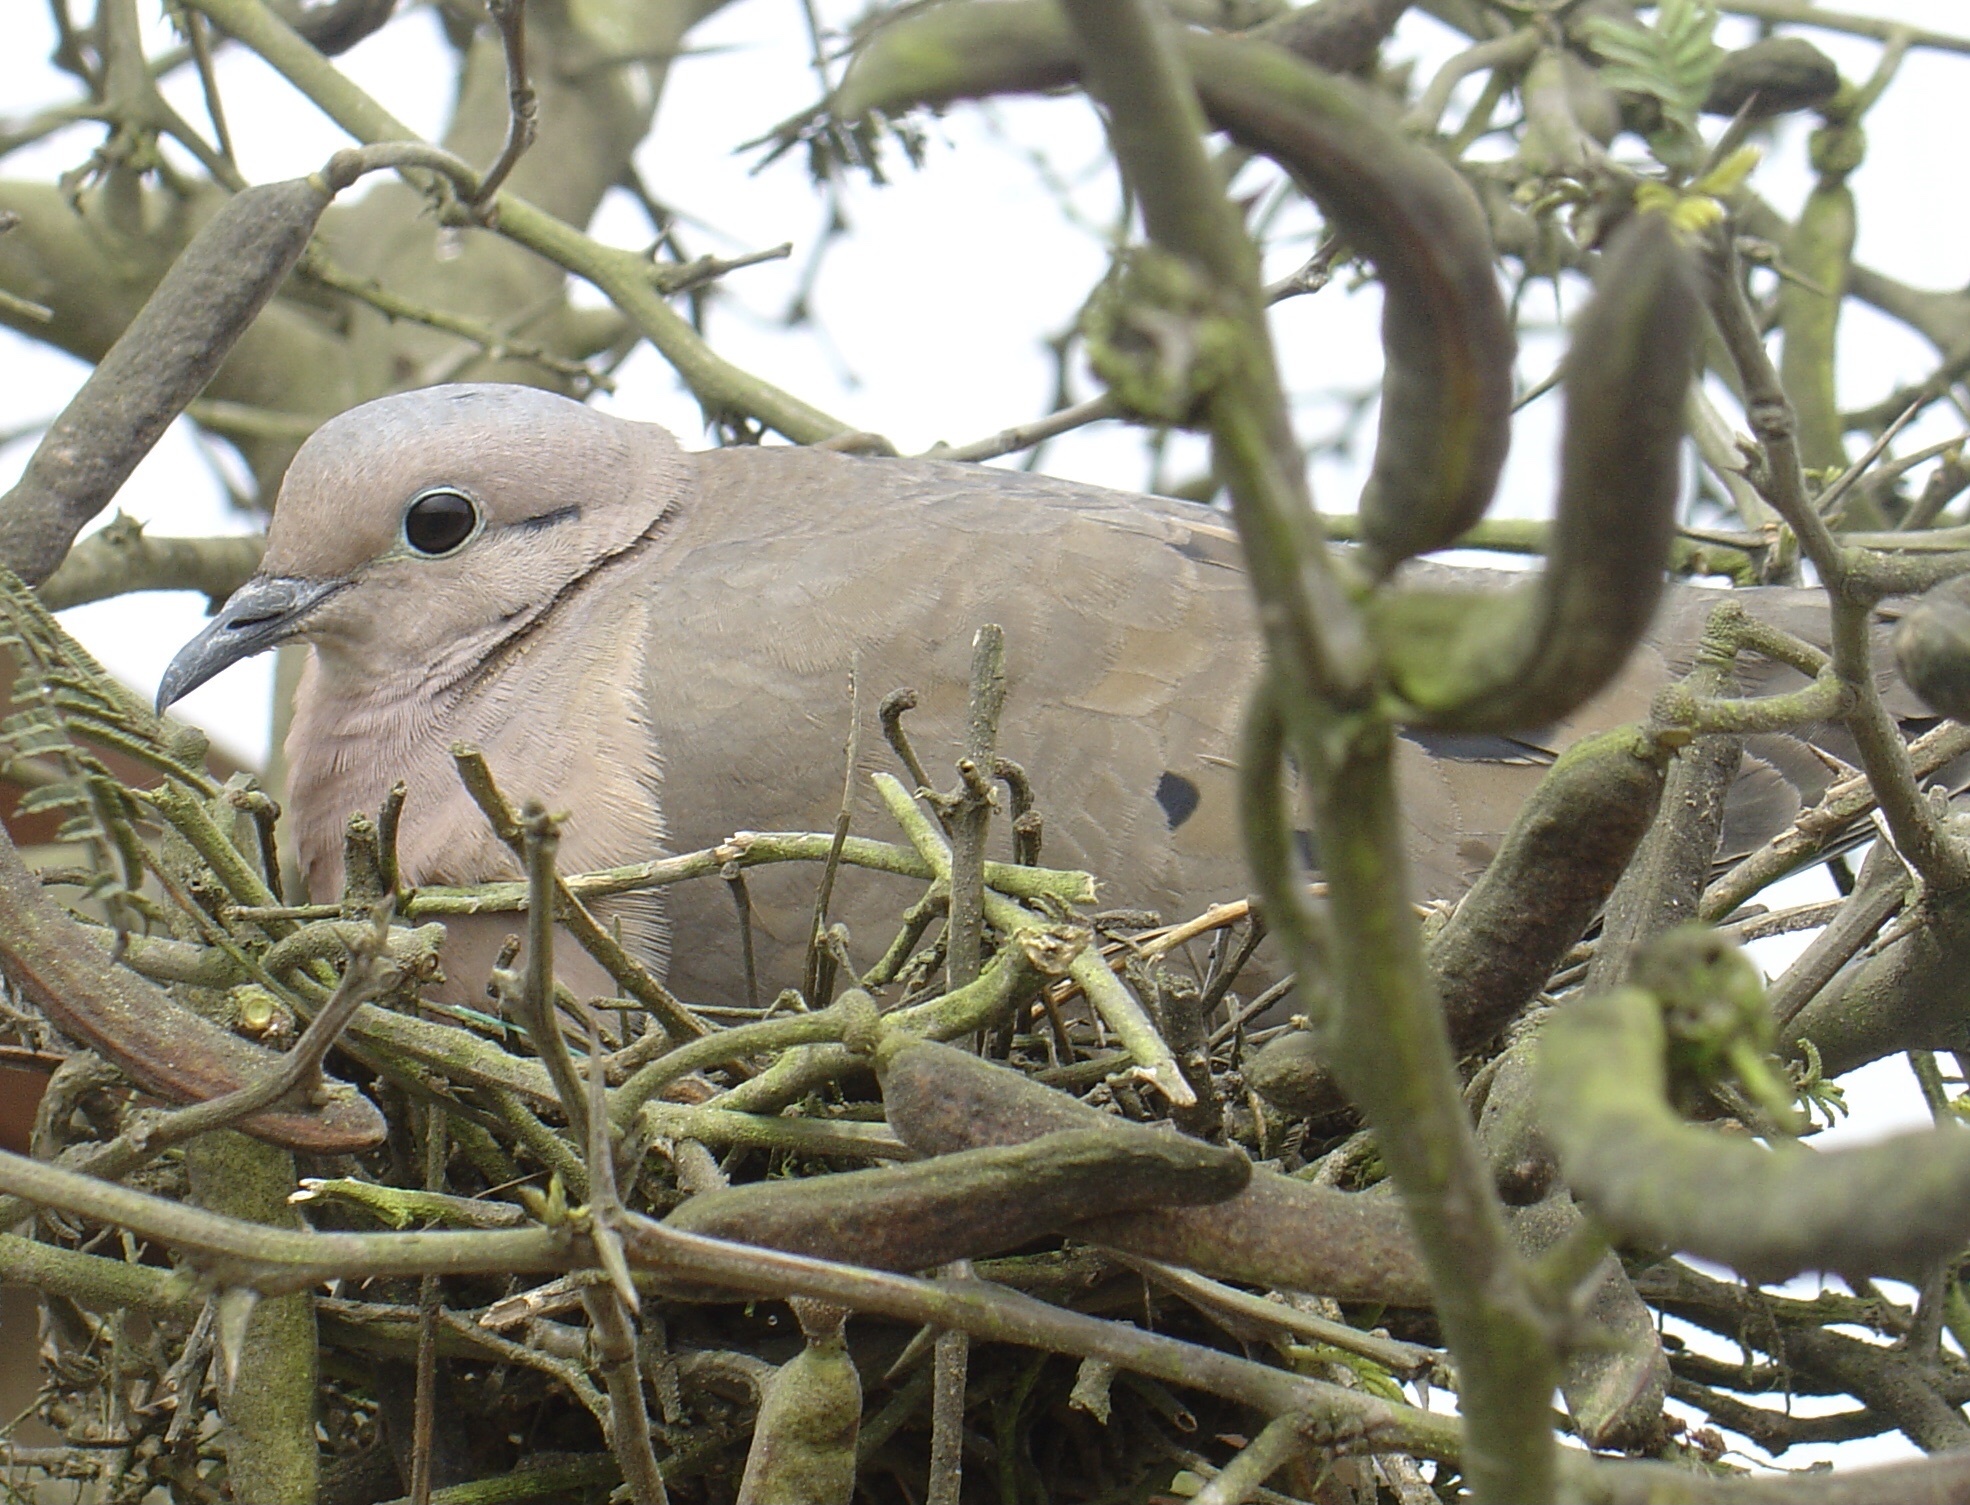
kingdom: Animalia
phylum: Chordata
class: Aves
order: Columbiformes
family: Columbidae
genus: Zenaida
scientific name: Zenaida auriculata
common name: Eared dove
